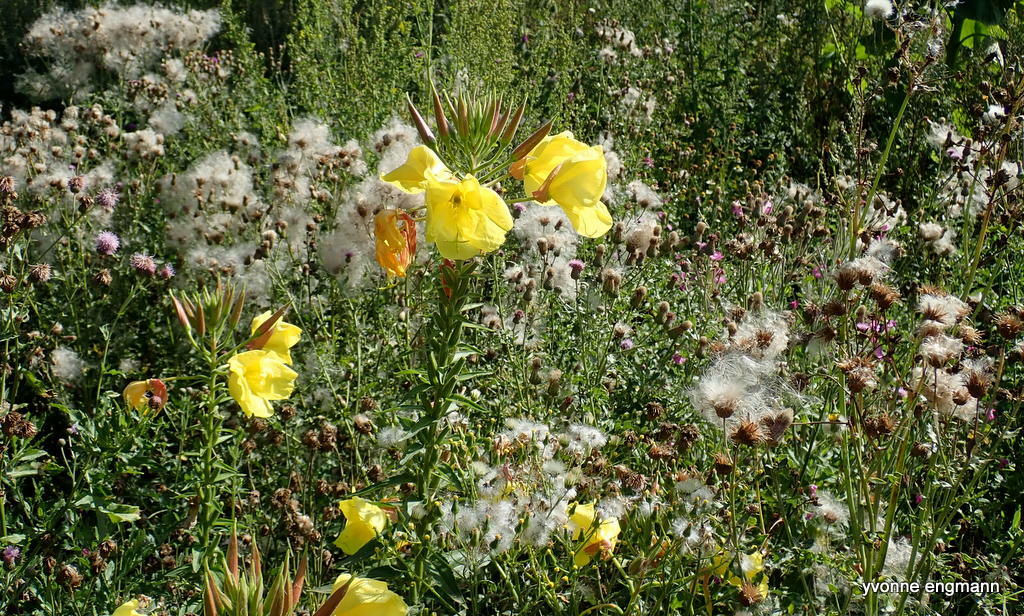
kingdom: Plantae
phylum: Tracheophyta
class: Magnoliopsida
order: Myrtales
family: Onagraceae
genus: Oenothera
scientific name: Oenothera glazioviana
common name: Large-flowered evening-primrose
